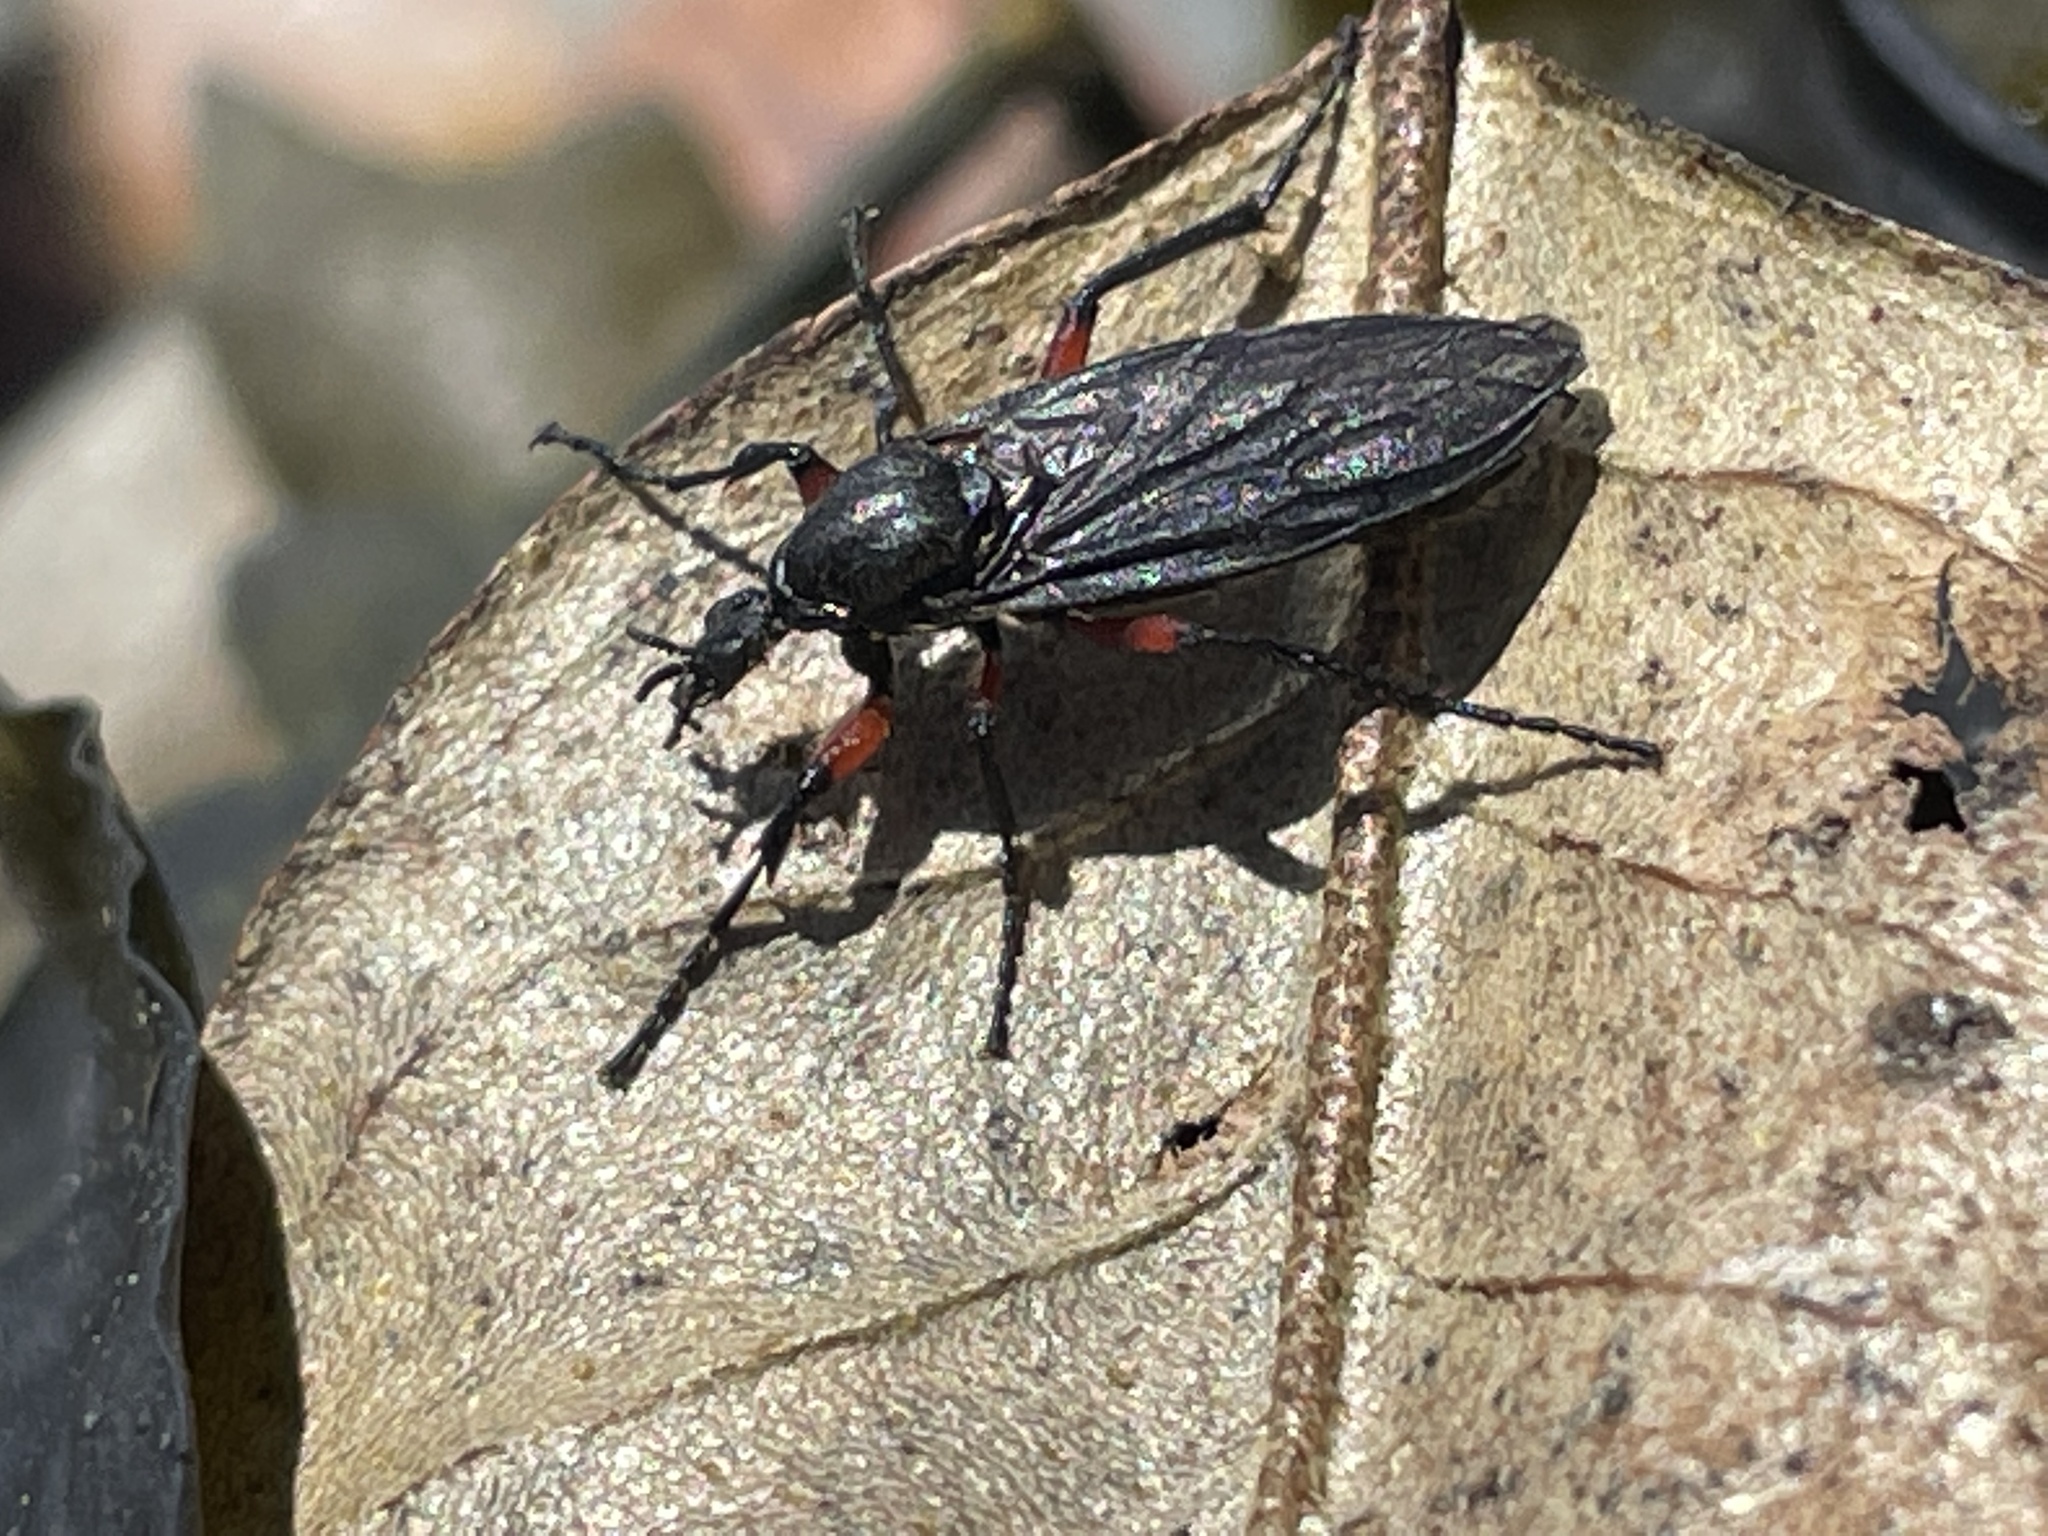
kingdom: Animalia
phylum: Arthropoda
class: Insecta
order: Diptera
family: Bibionidae
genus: Bibio
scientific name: Bibio femoratus
